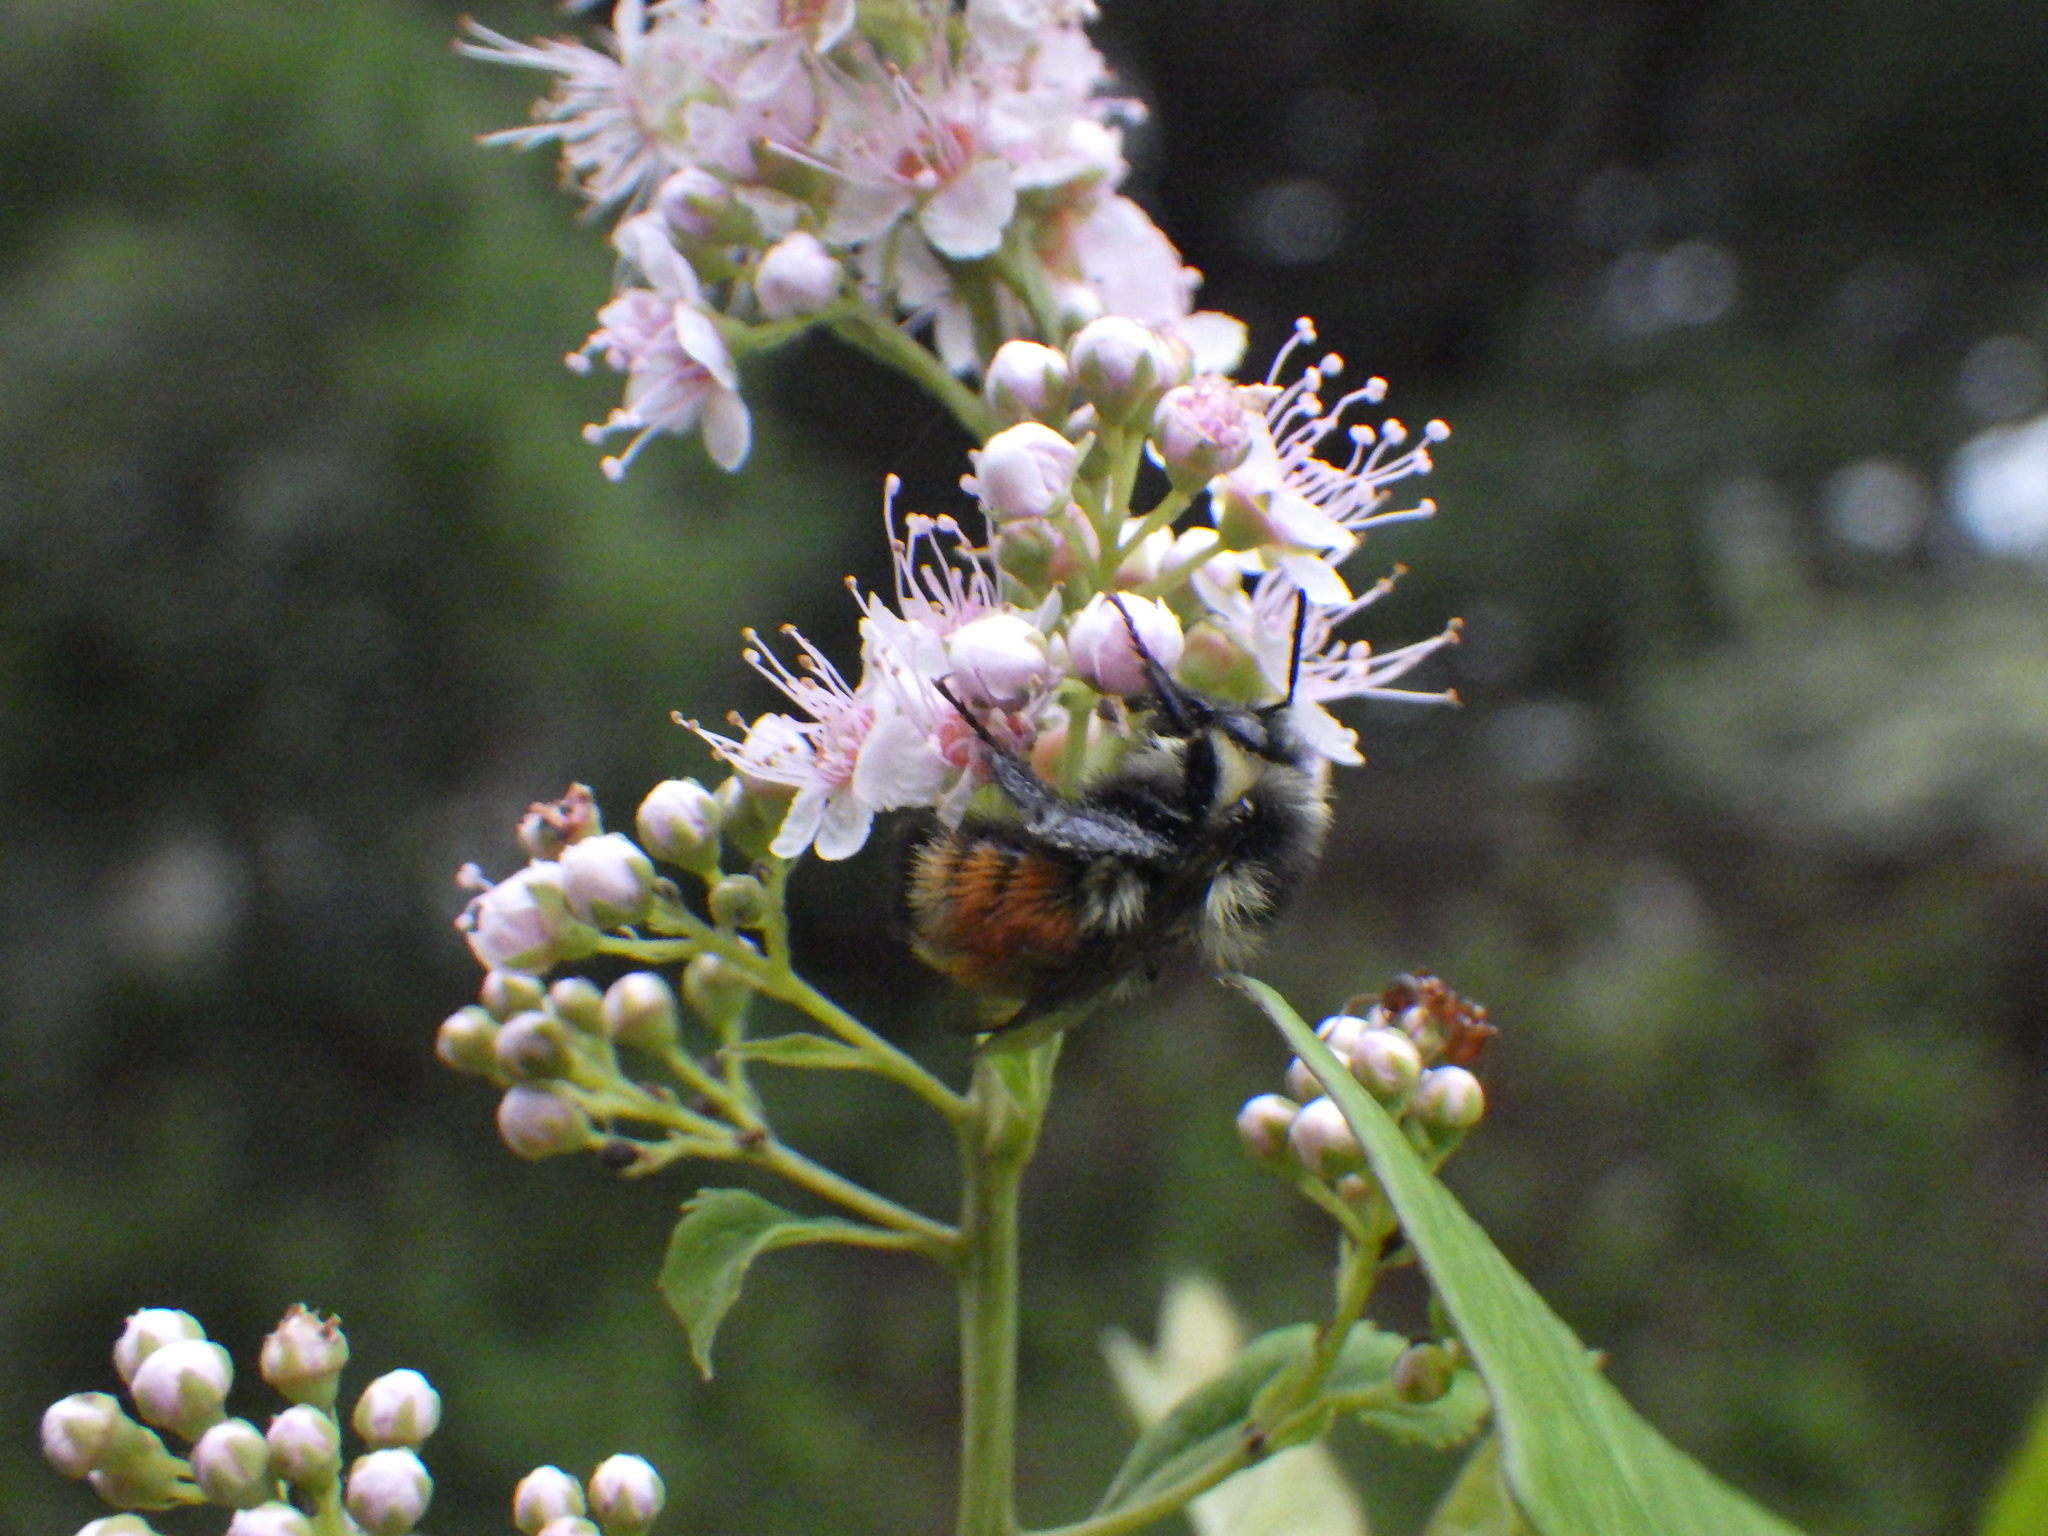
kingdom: Animalia
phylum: Arthropoda
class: Insecta
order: Hymenoptera
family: Apidae
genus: Bombus
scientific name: Bombus ternarius
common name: Tri-colored bumble bee
